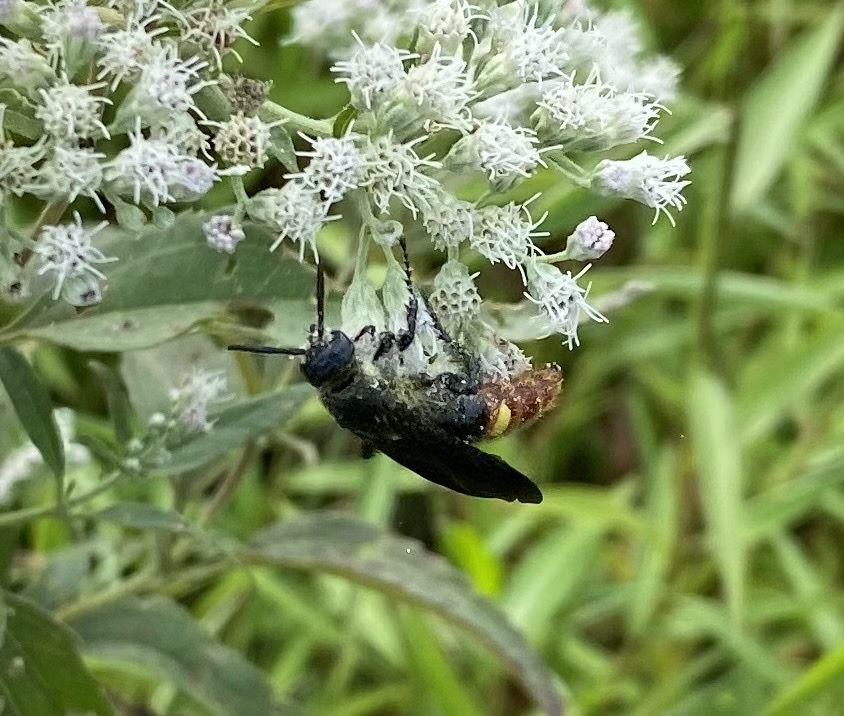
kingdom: Animalia
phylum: Arthropoda
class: Insecta
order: Hymenoptera
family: Scoliidae
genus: Scolia
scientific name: Scolia dubia
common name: Blue-winged scoliid wasp
